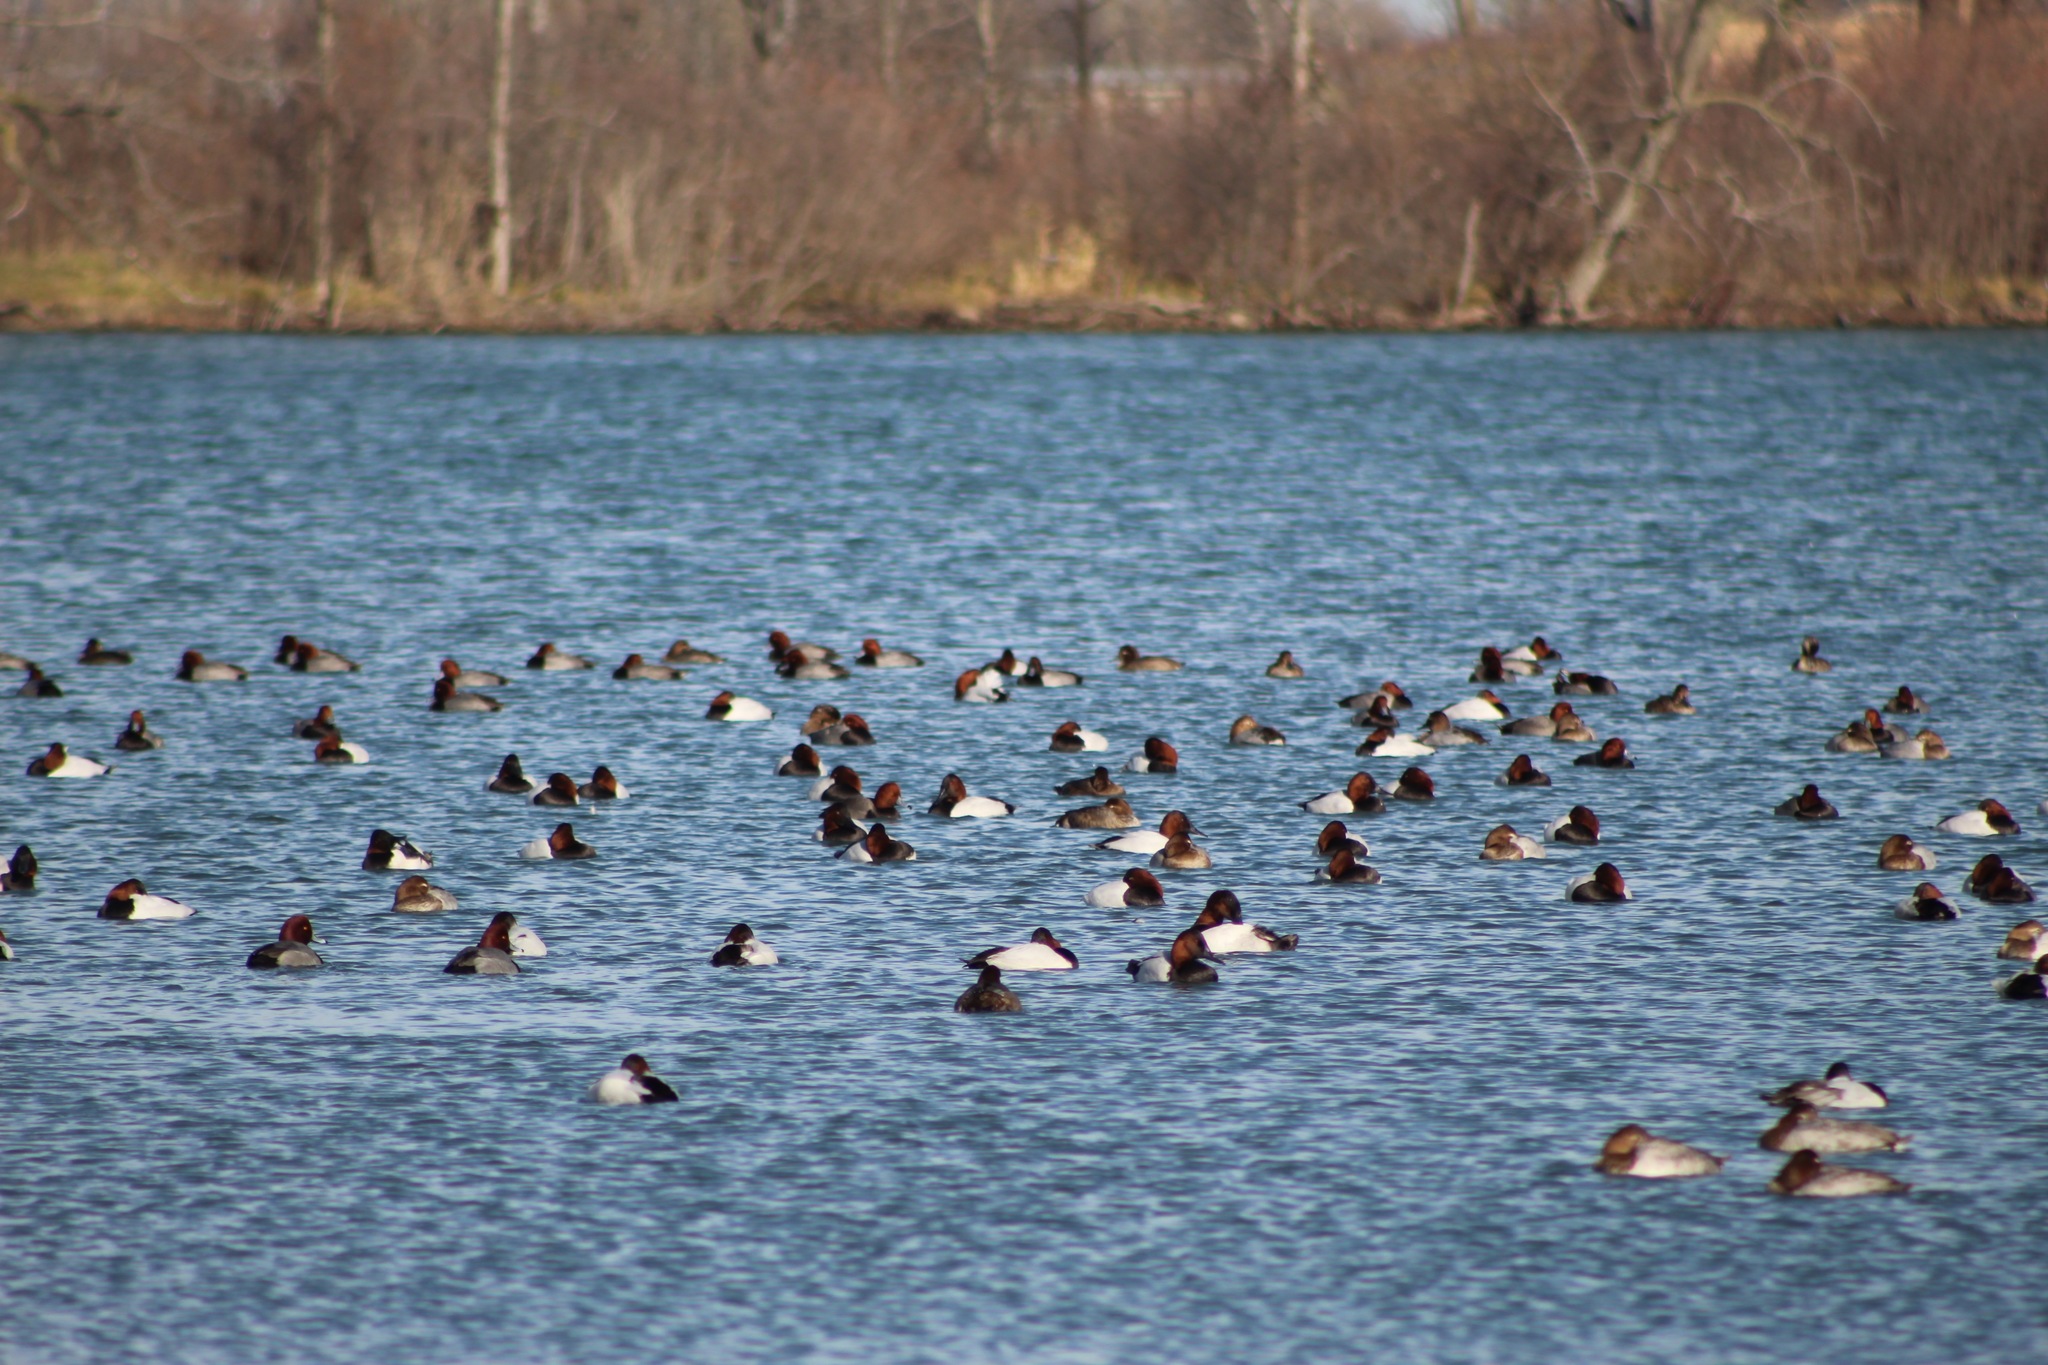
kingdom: Animalia
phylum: Chordata
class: Aves
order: Anseriformes
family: Anatidae
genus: Aythya
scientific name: Aythya valisineria
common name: Canvasback
